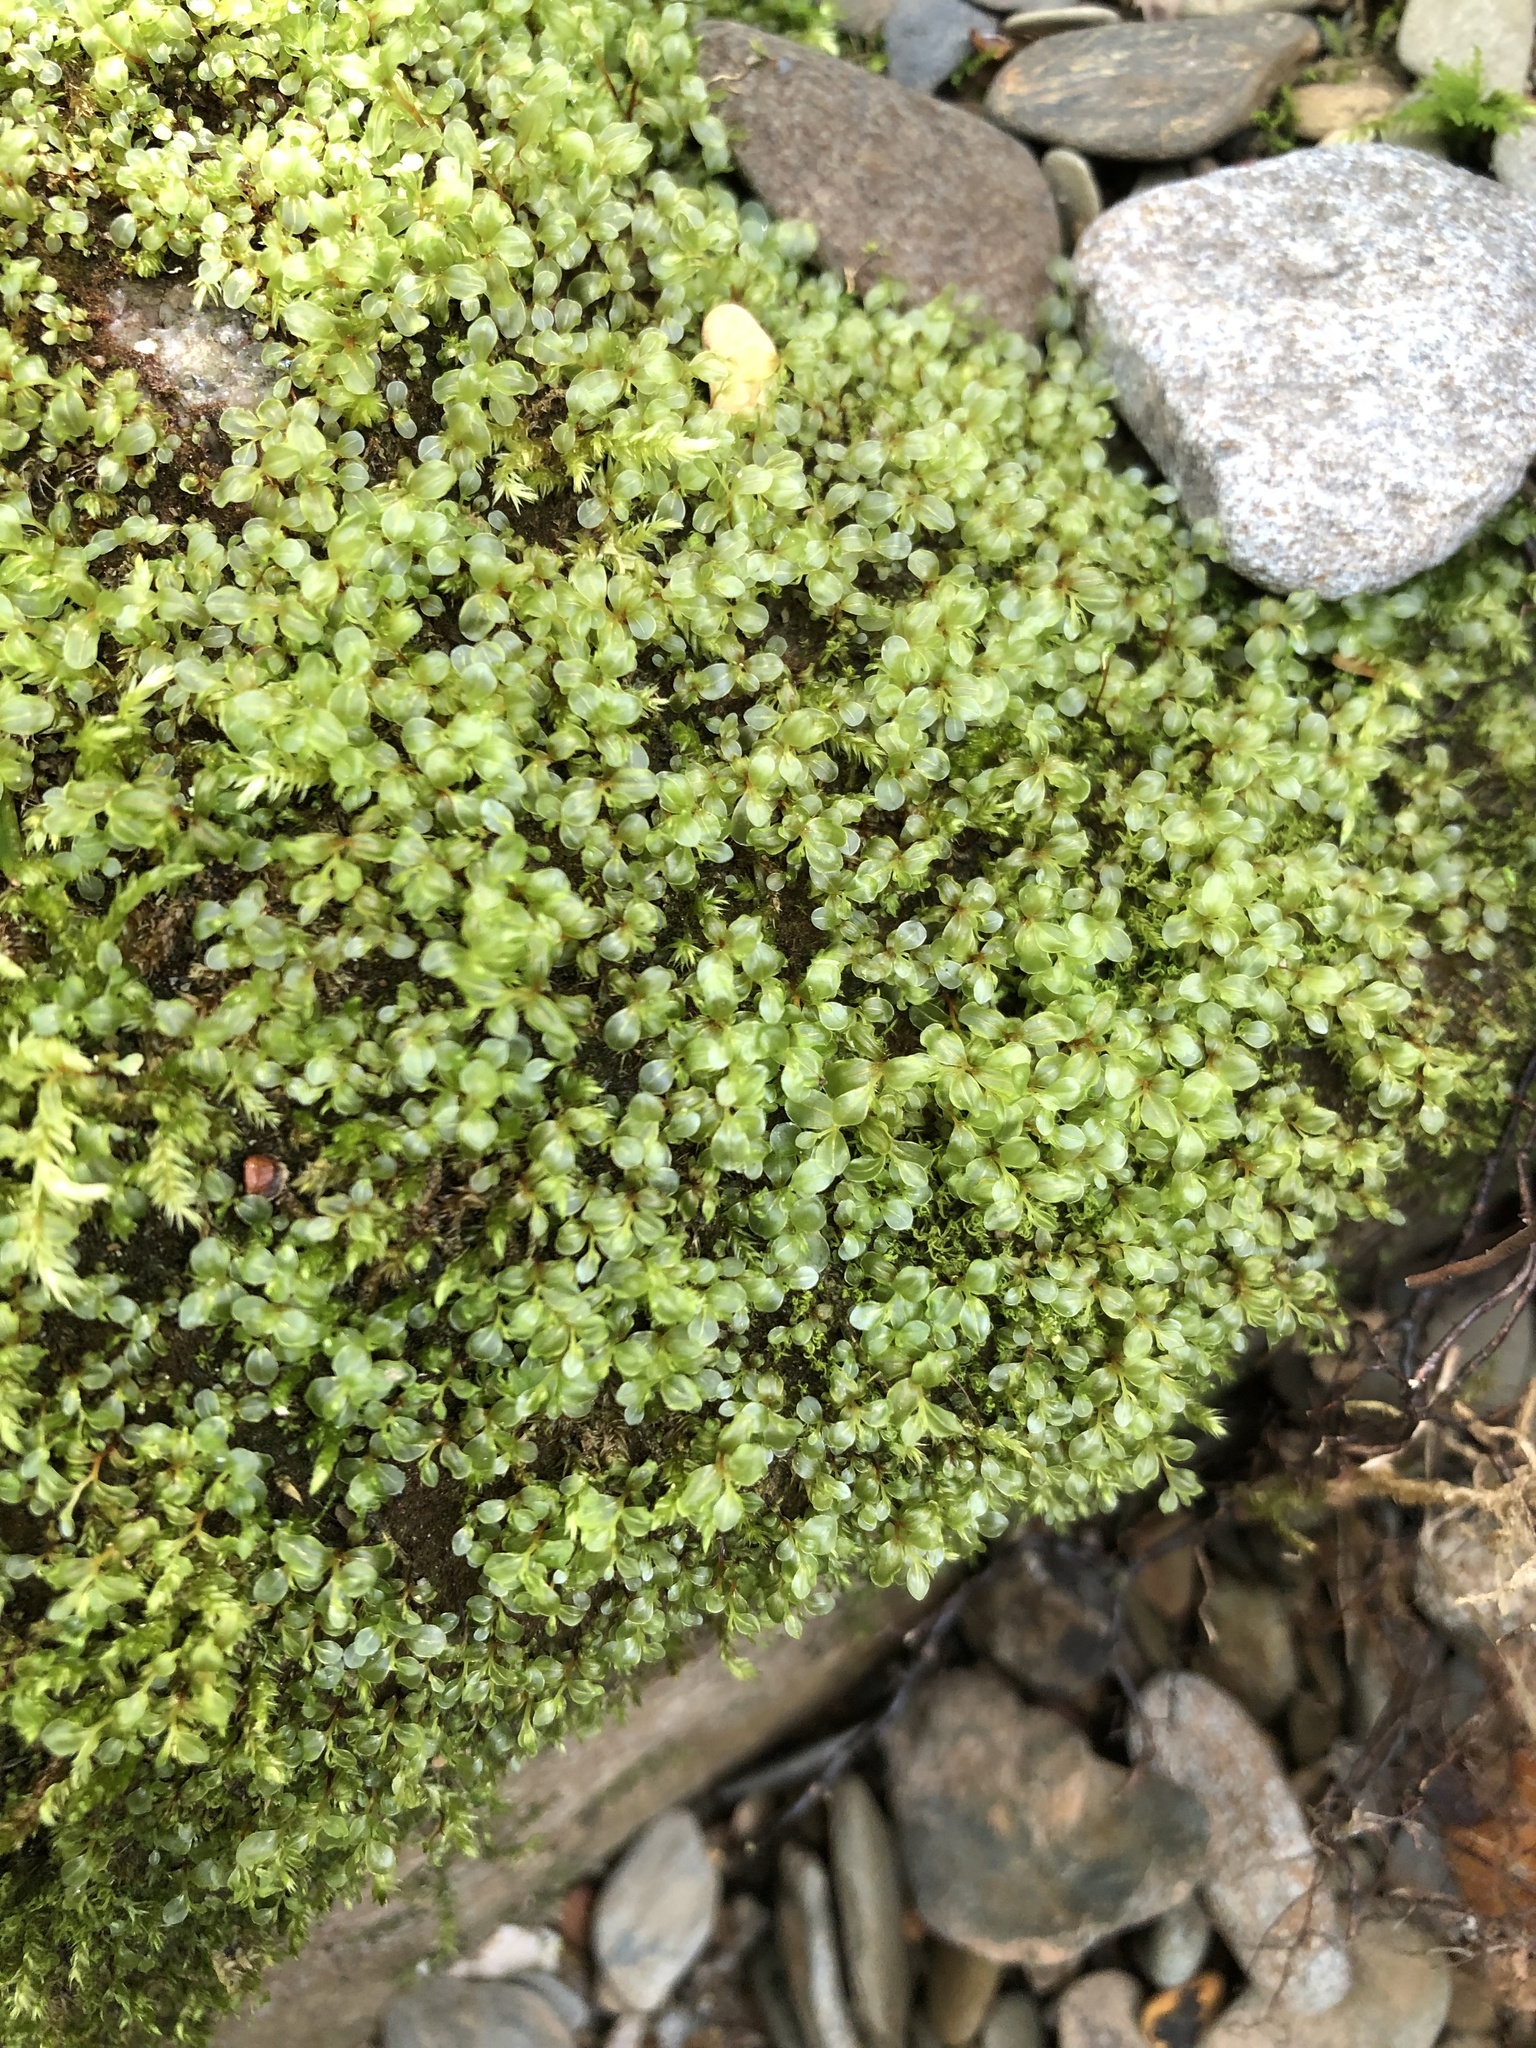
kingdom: Plantae
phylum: Bryophyta
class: Bryopsida
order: Bryales
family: Mniaceae
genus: Rhizomnium
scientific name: Rhizomnium punctatum
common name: Dotted leafy moss
